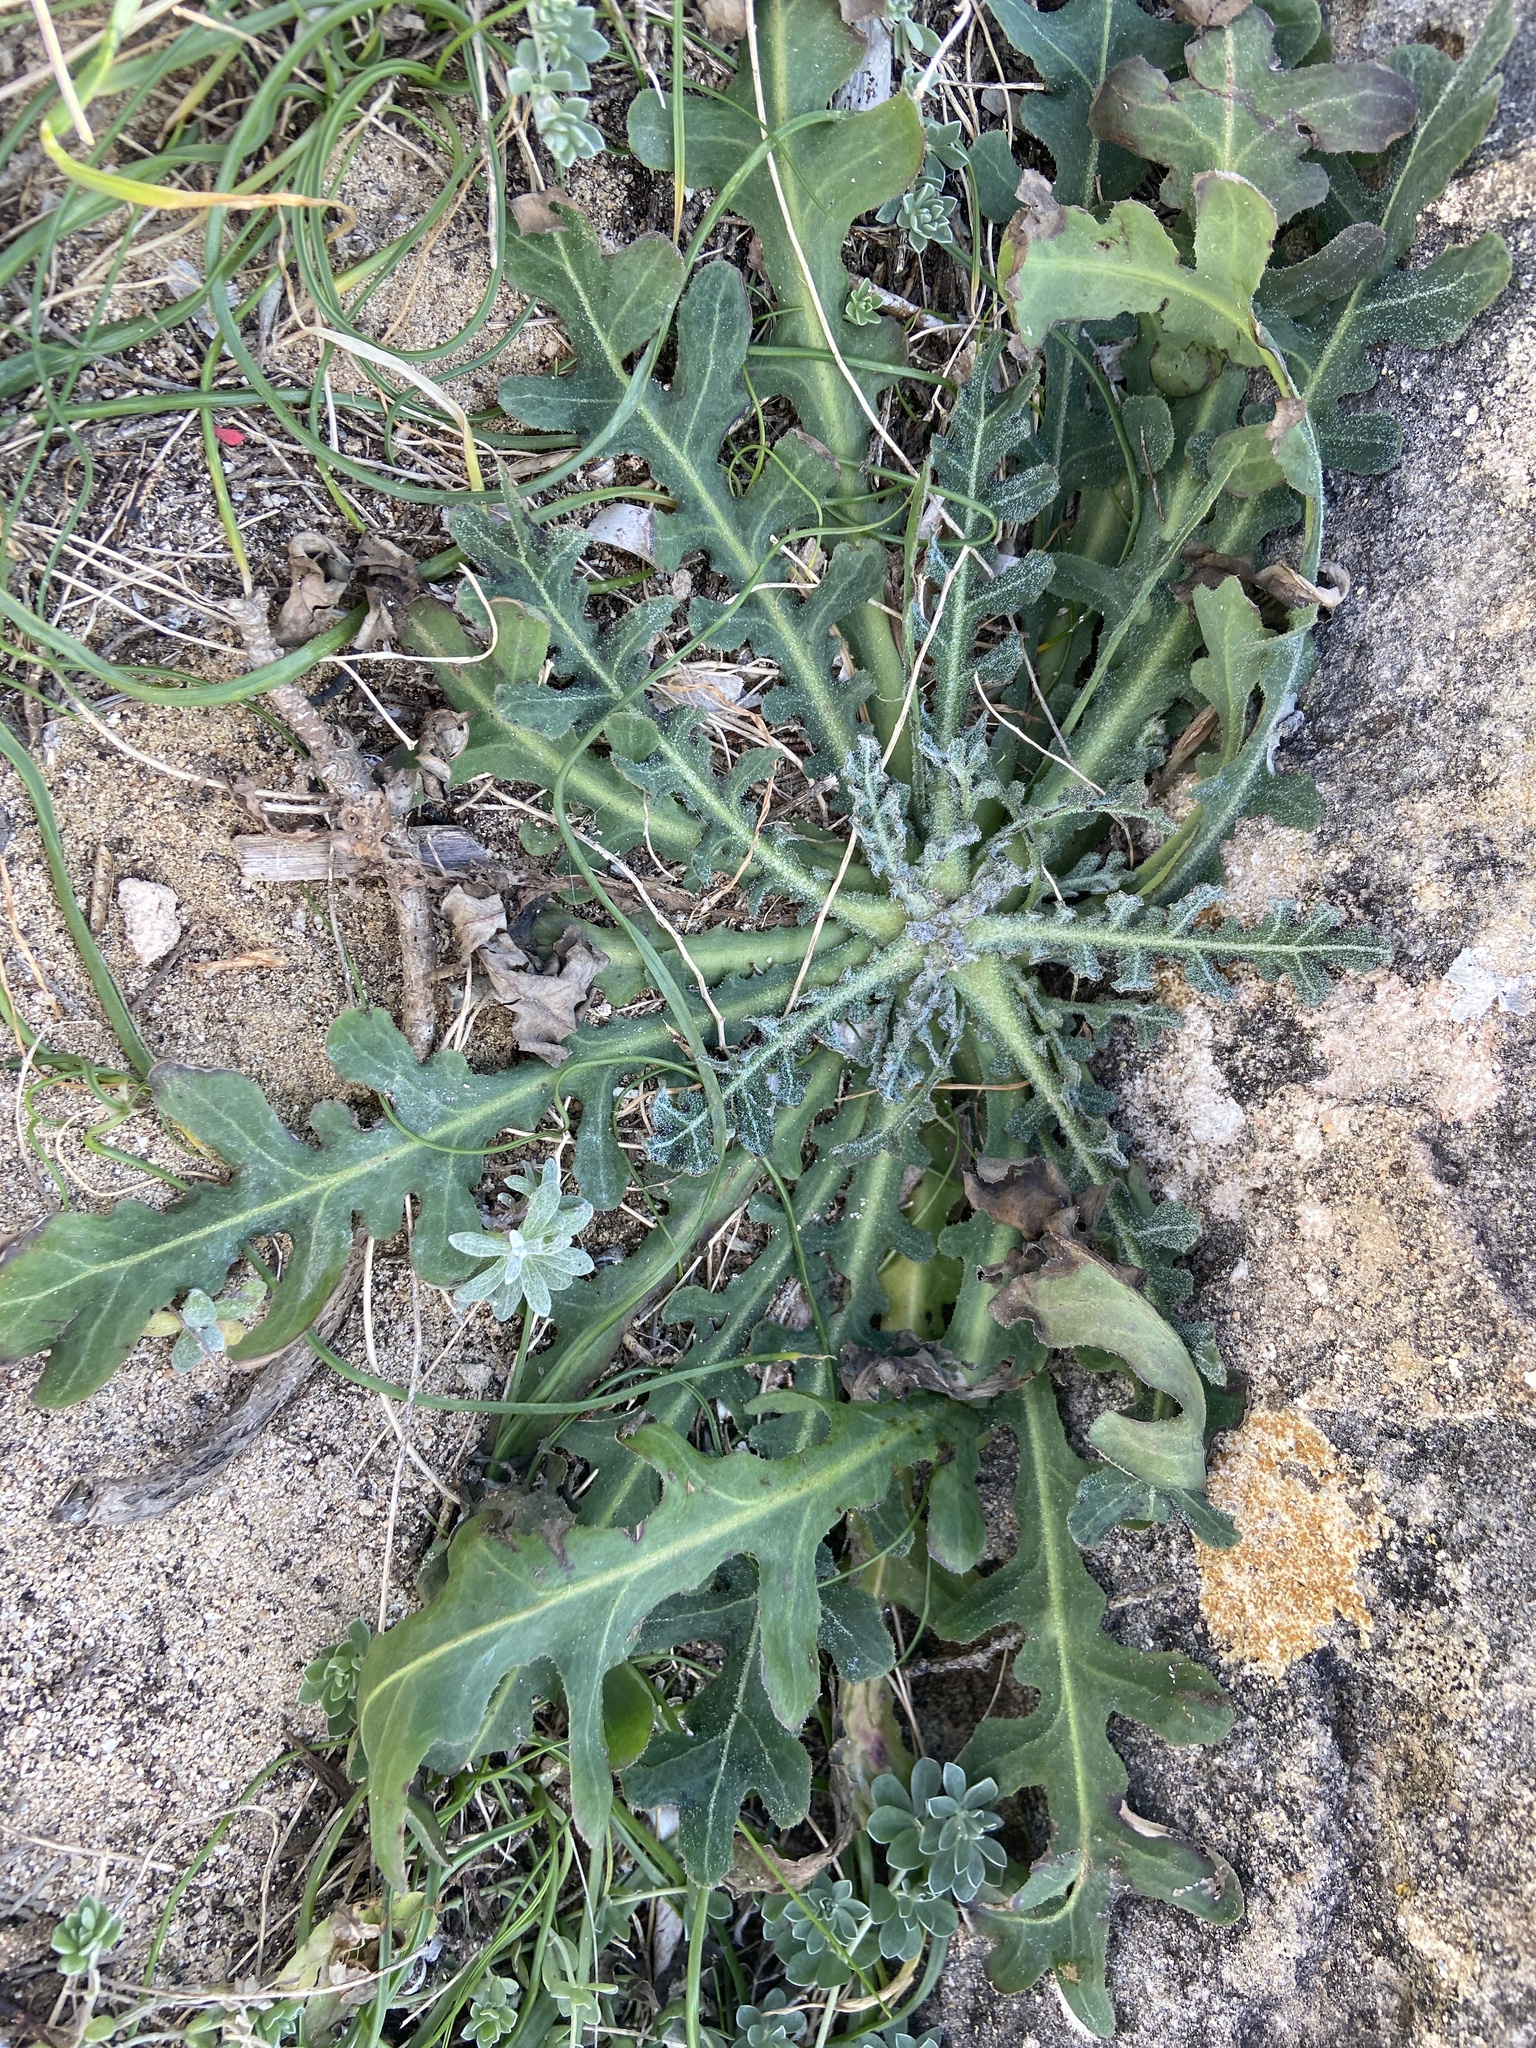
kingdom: Plantae
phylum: Tracheophyta
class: Magnoliopsida
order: Asterales
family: Asteraceae
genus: Reichardia
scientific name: Reichardia tingitana
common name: Reichardia
